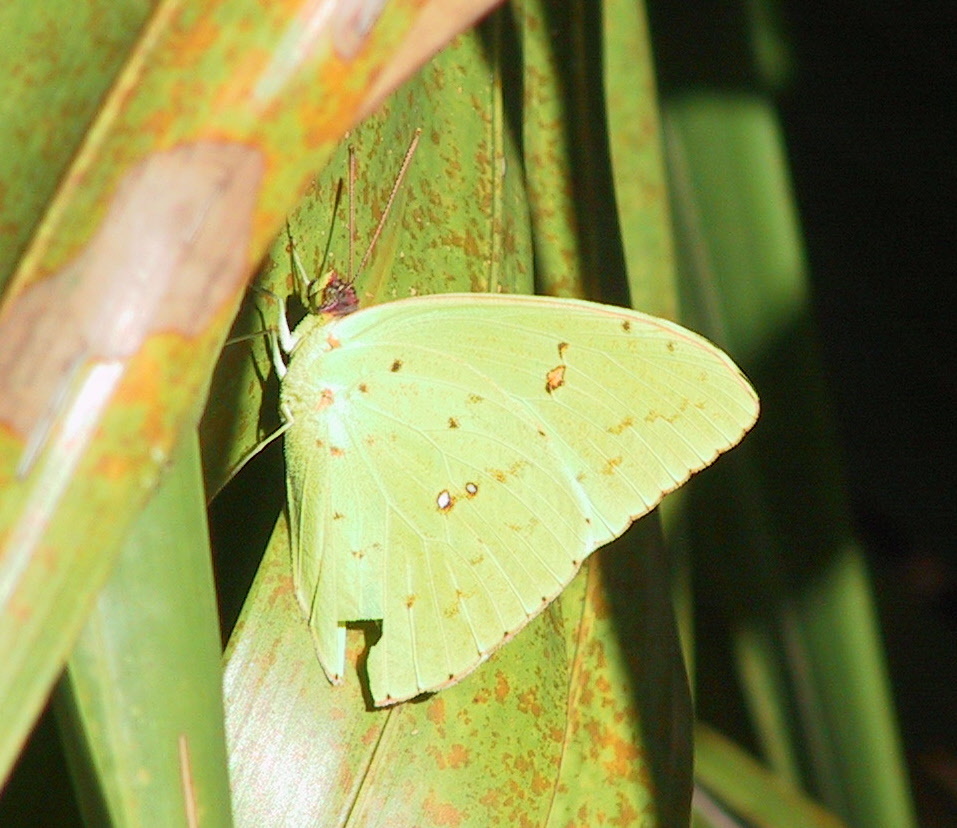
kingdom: Animalia
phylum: Arthropoda
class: Insecta
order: Lepidoptera
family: Pieridae
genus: Phoebis
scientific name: Phoebis sennae
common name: Cloudless sulphur
